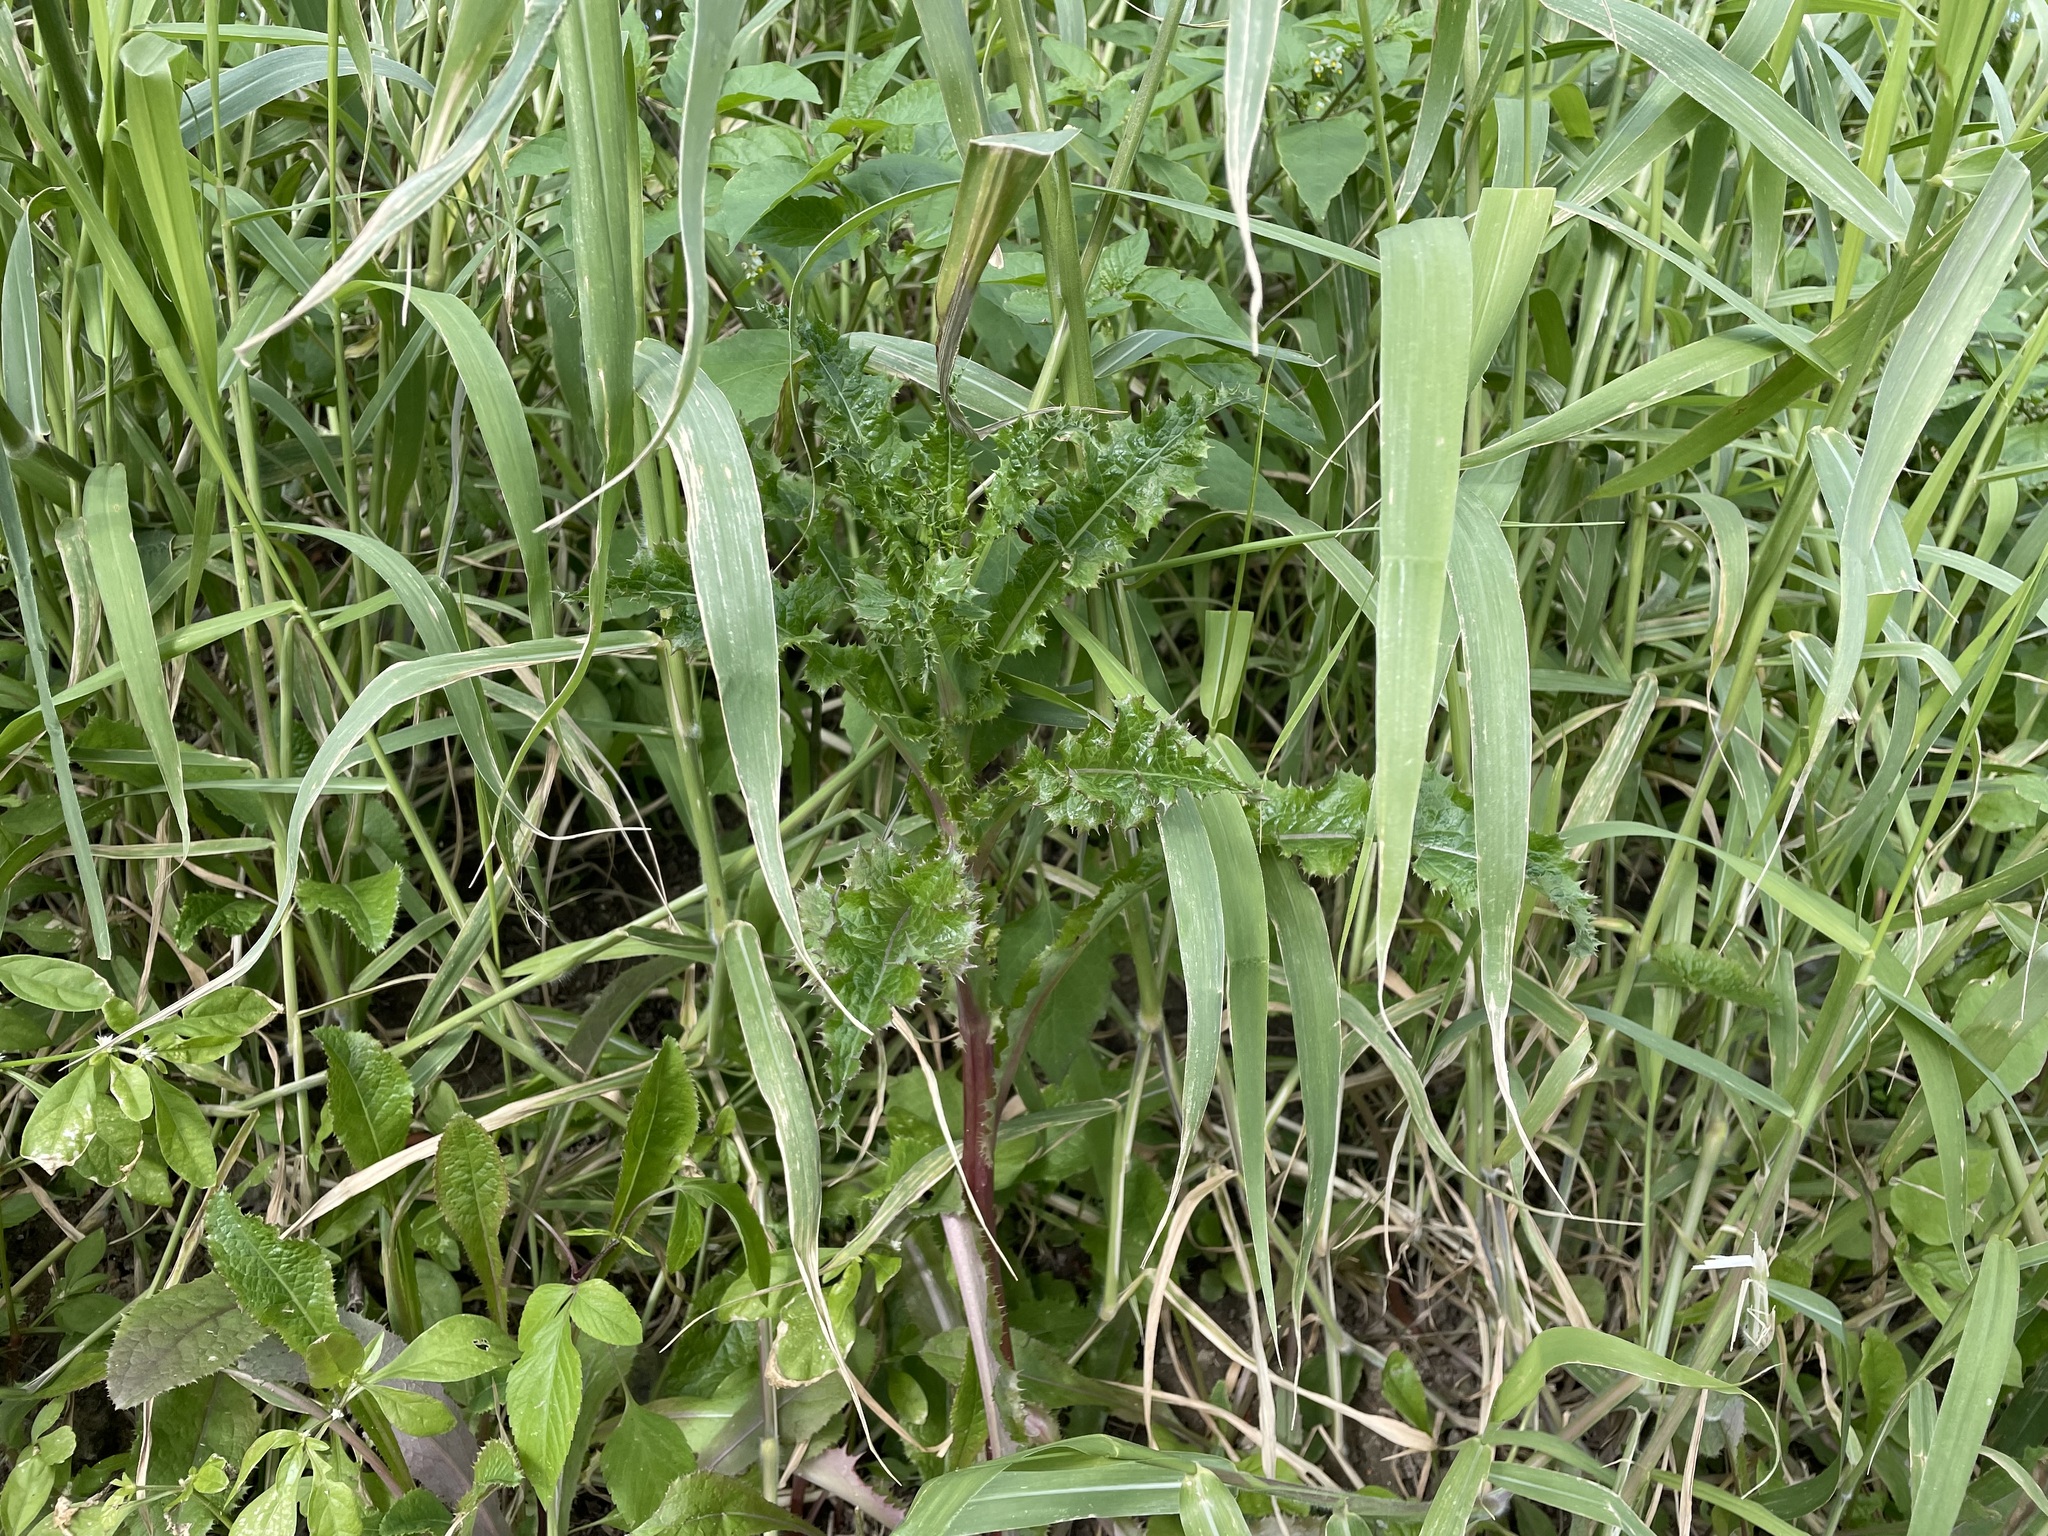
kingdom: Plantae
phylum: Tracheophyta
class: Magnoliopsida
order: Asterales
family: Asteraceae
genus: Sonchus
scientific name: Sonchus asper
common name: Prickly sow-thistle
